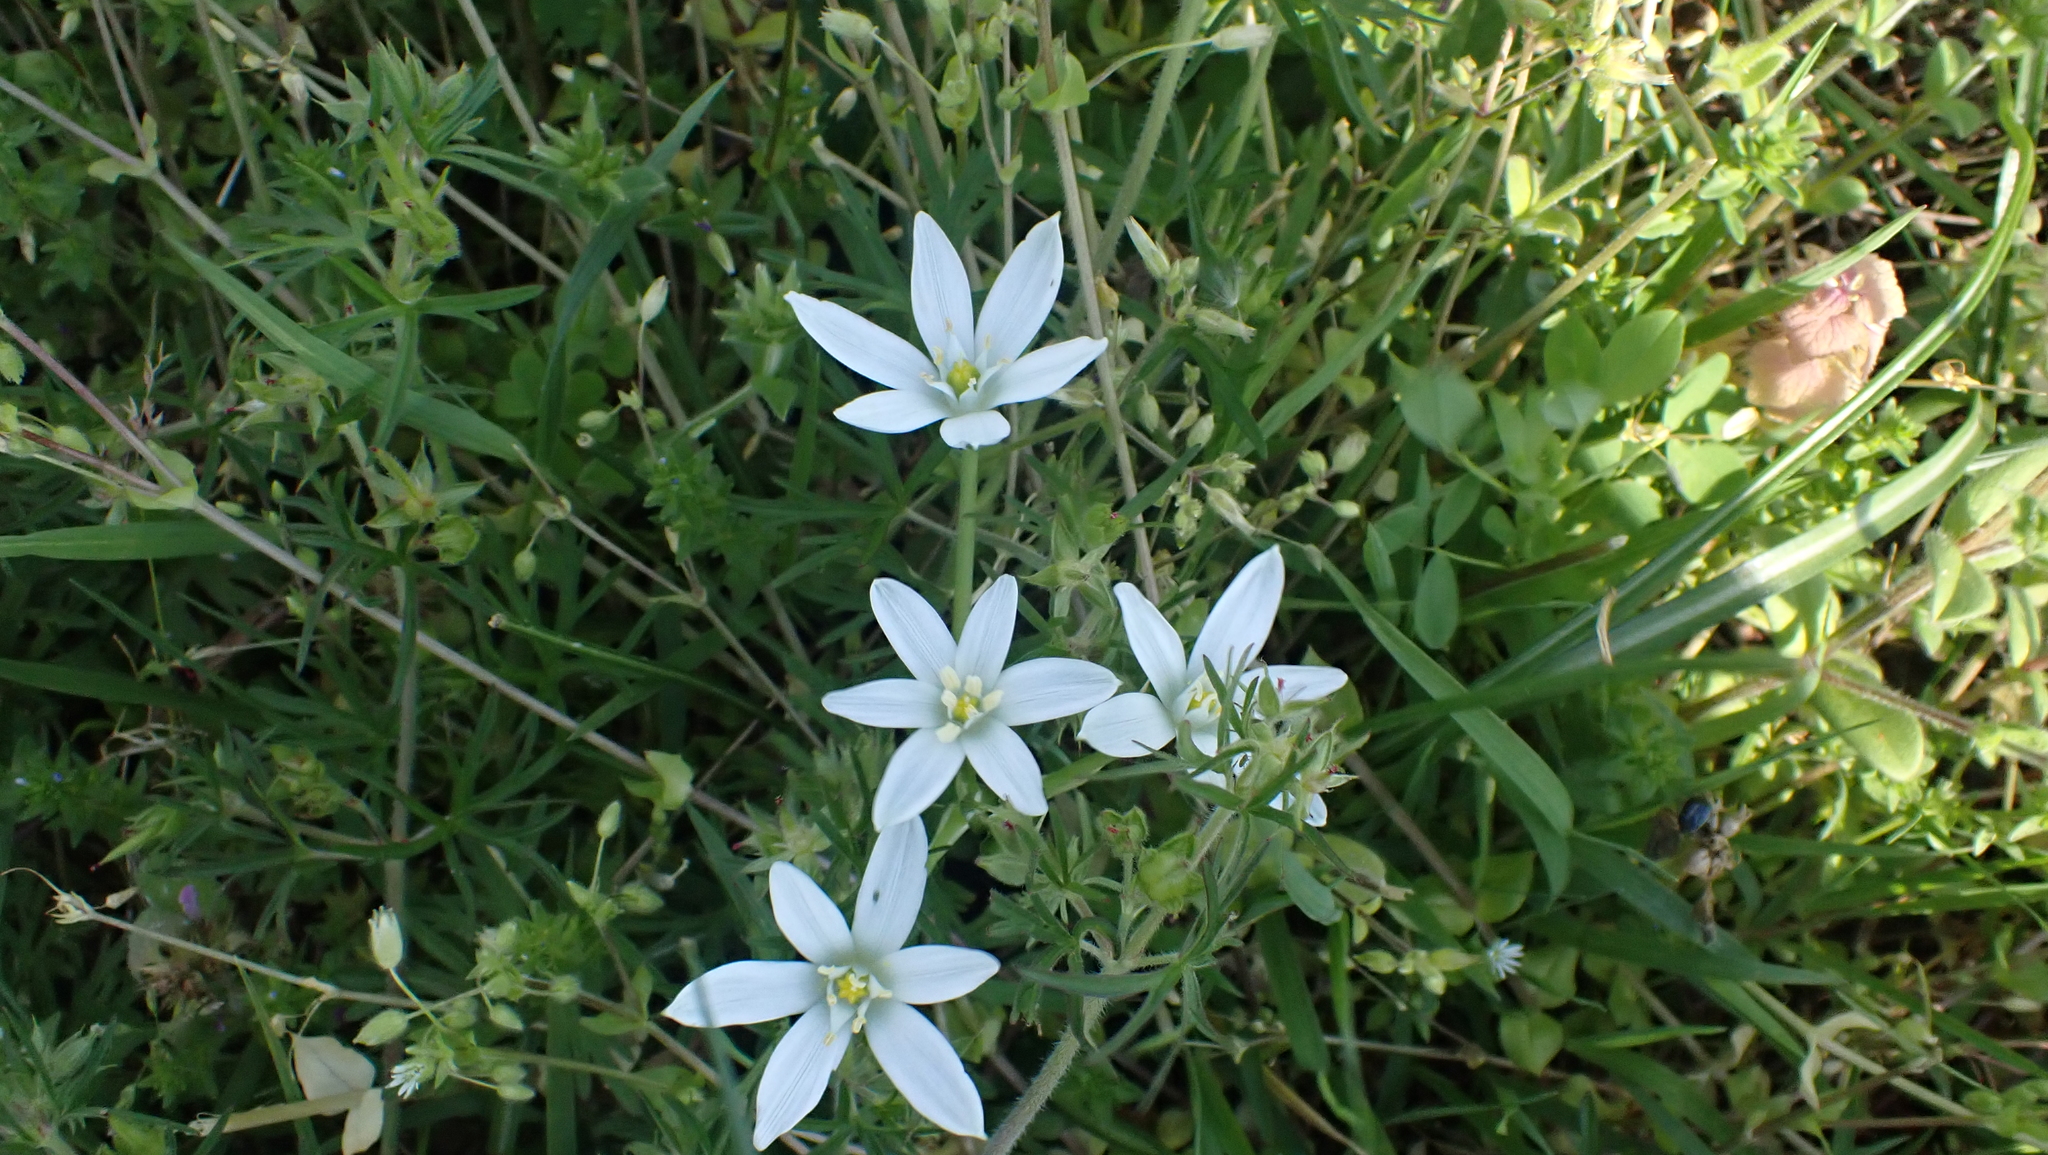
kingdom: Plantae
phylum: Tracheophyta
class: Liliopsida
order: Asparagales
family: Asparagaceae
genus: Ornithogalum
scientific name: Ornithogalum umbellatum
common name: Garden star-of-bethlehem
